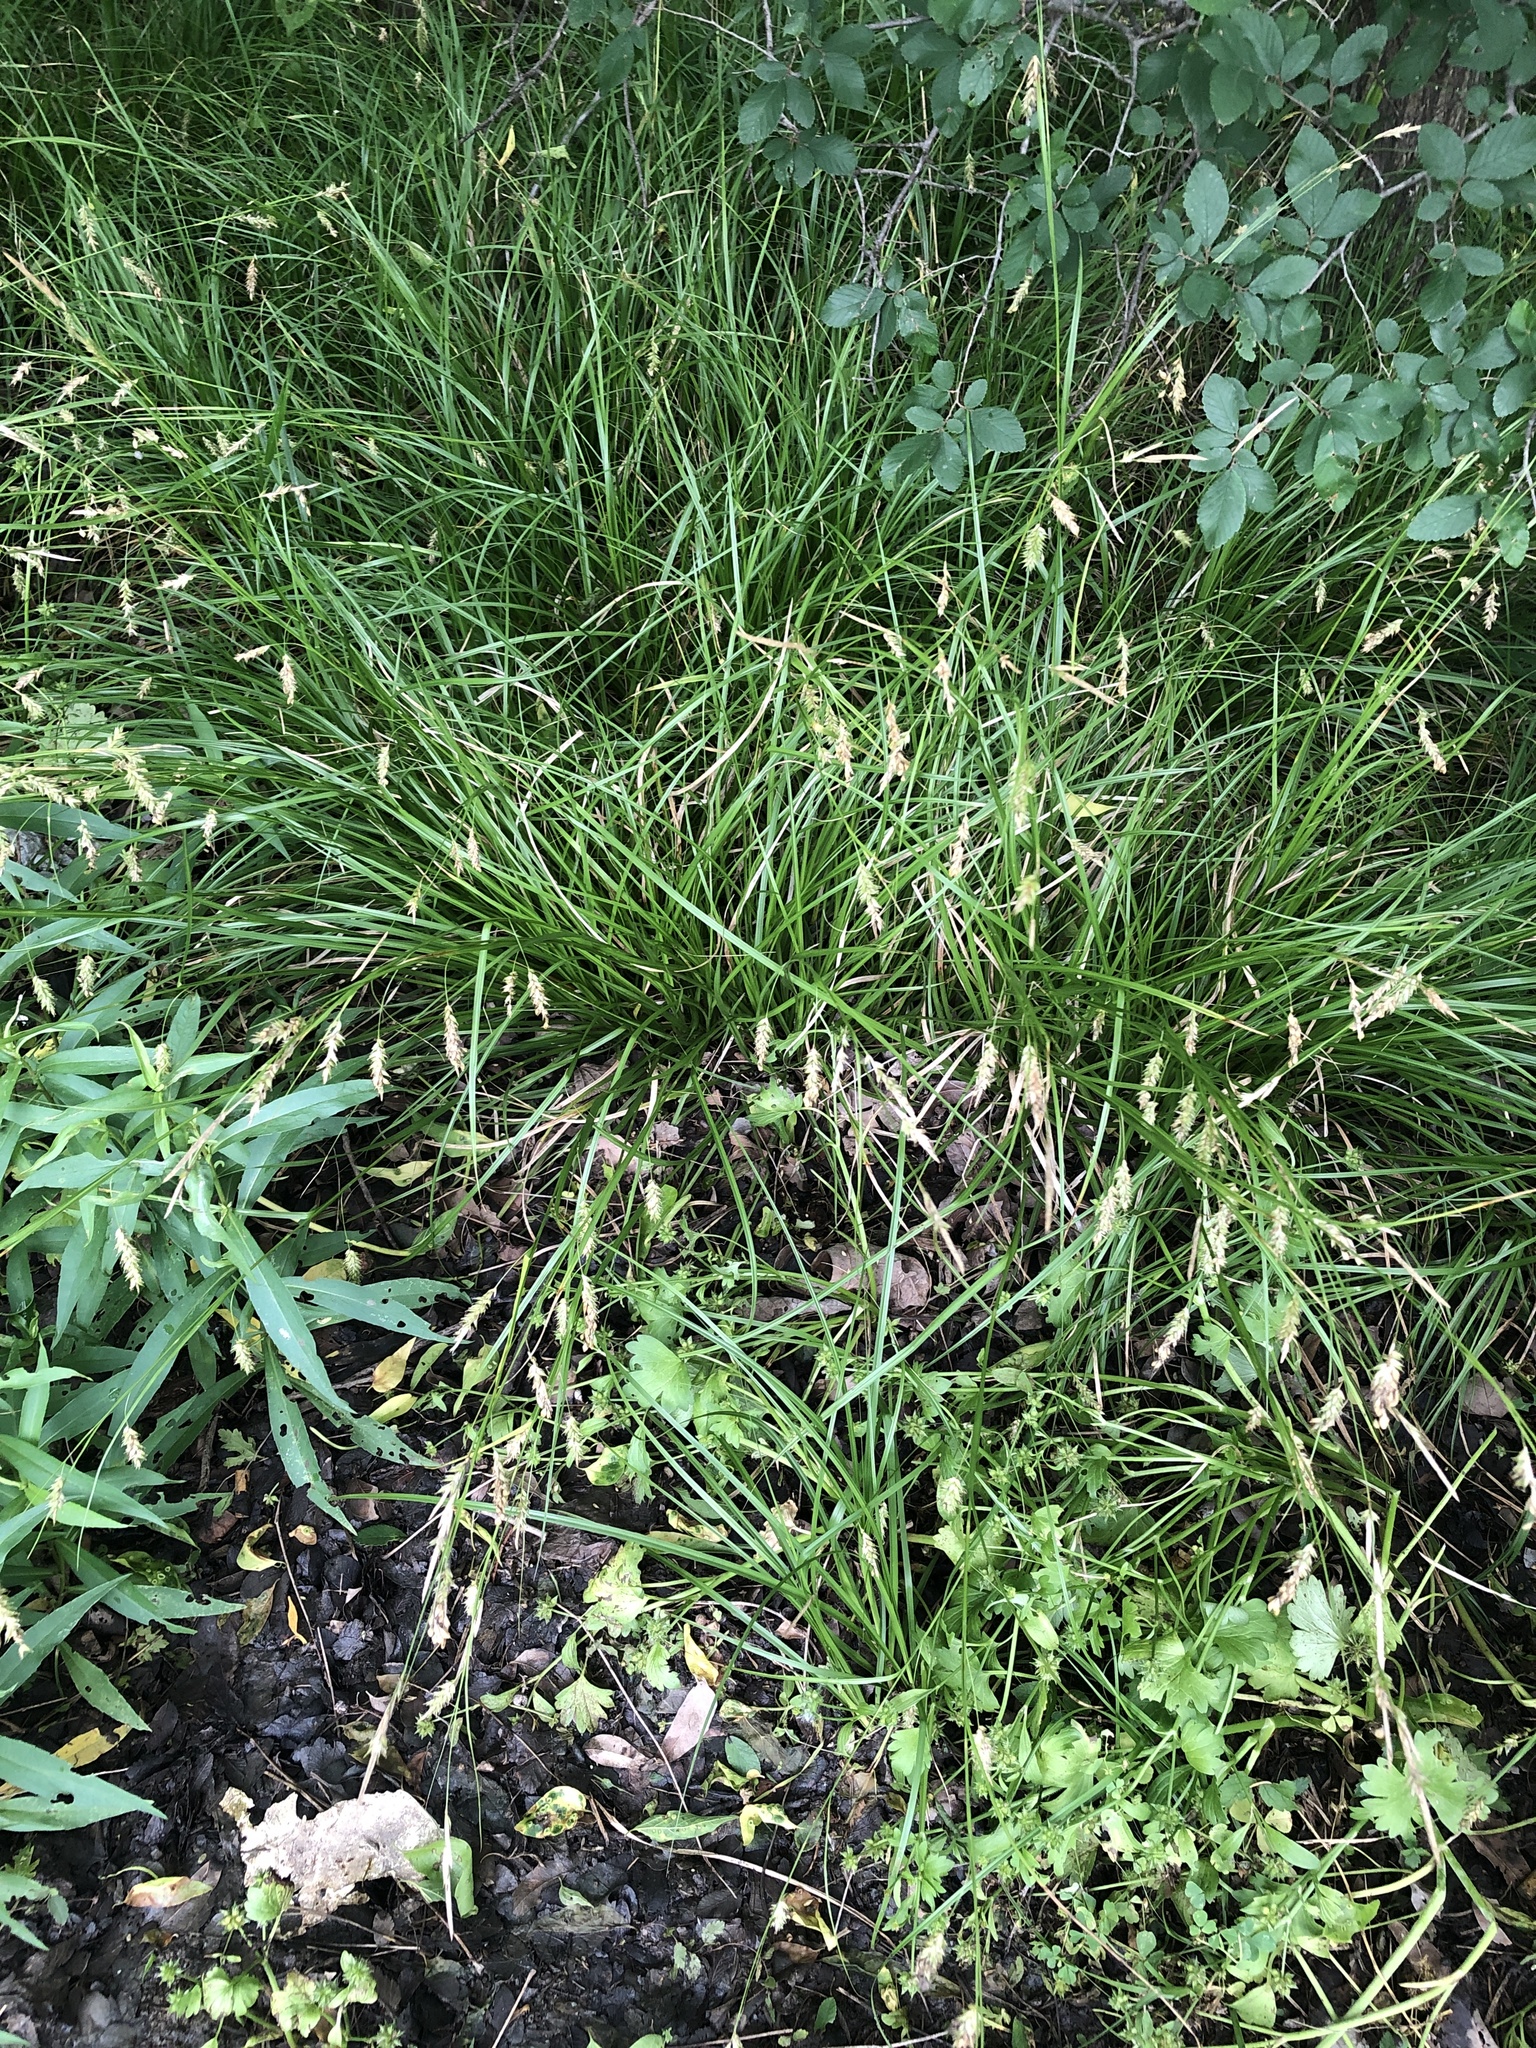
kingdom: Plantae
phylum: Tracheophyta
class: Liliopsida
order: Poales
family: Cyperaceae
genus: Carex
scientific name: Carex cherokeensis
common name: Cherokee sedge
